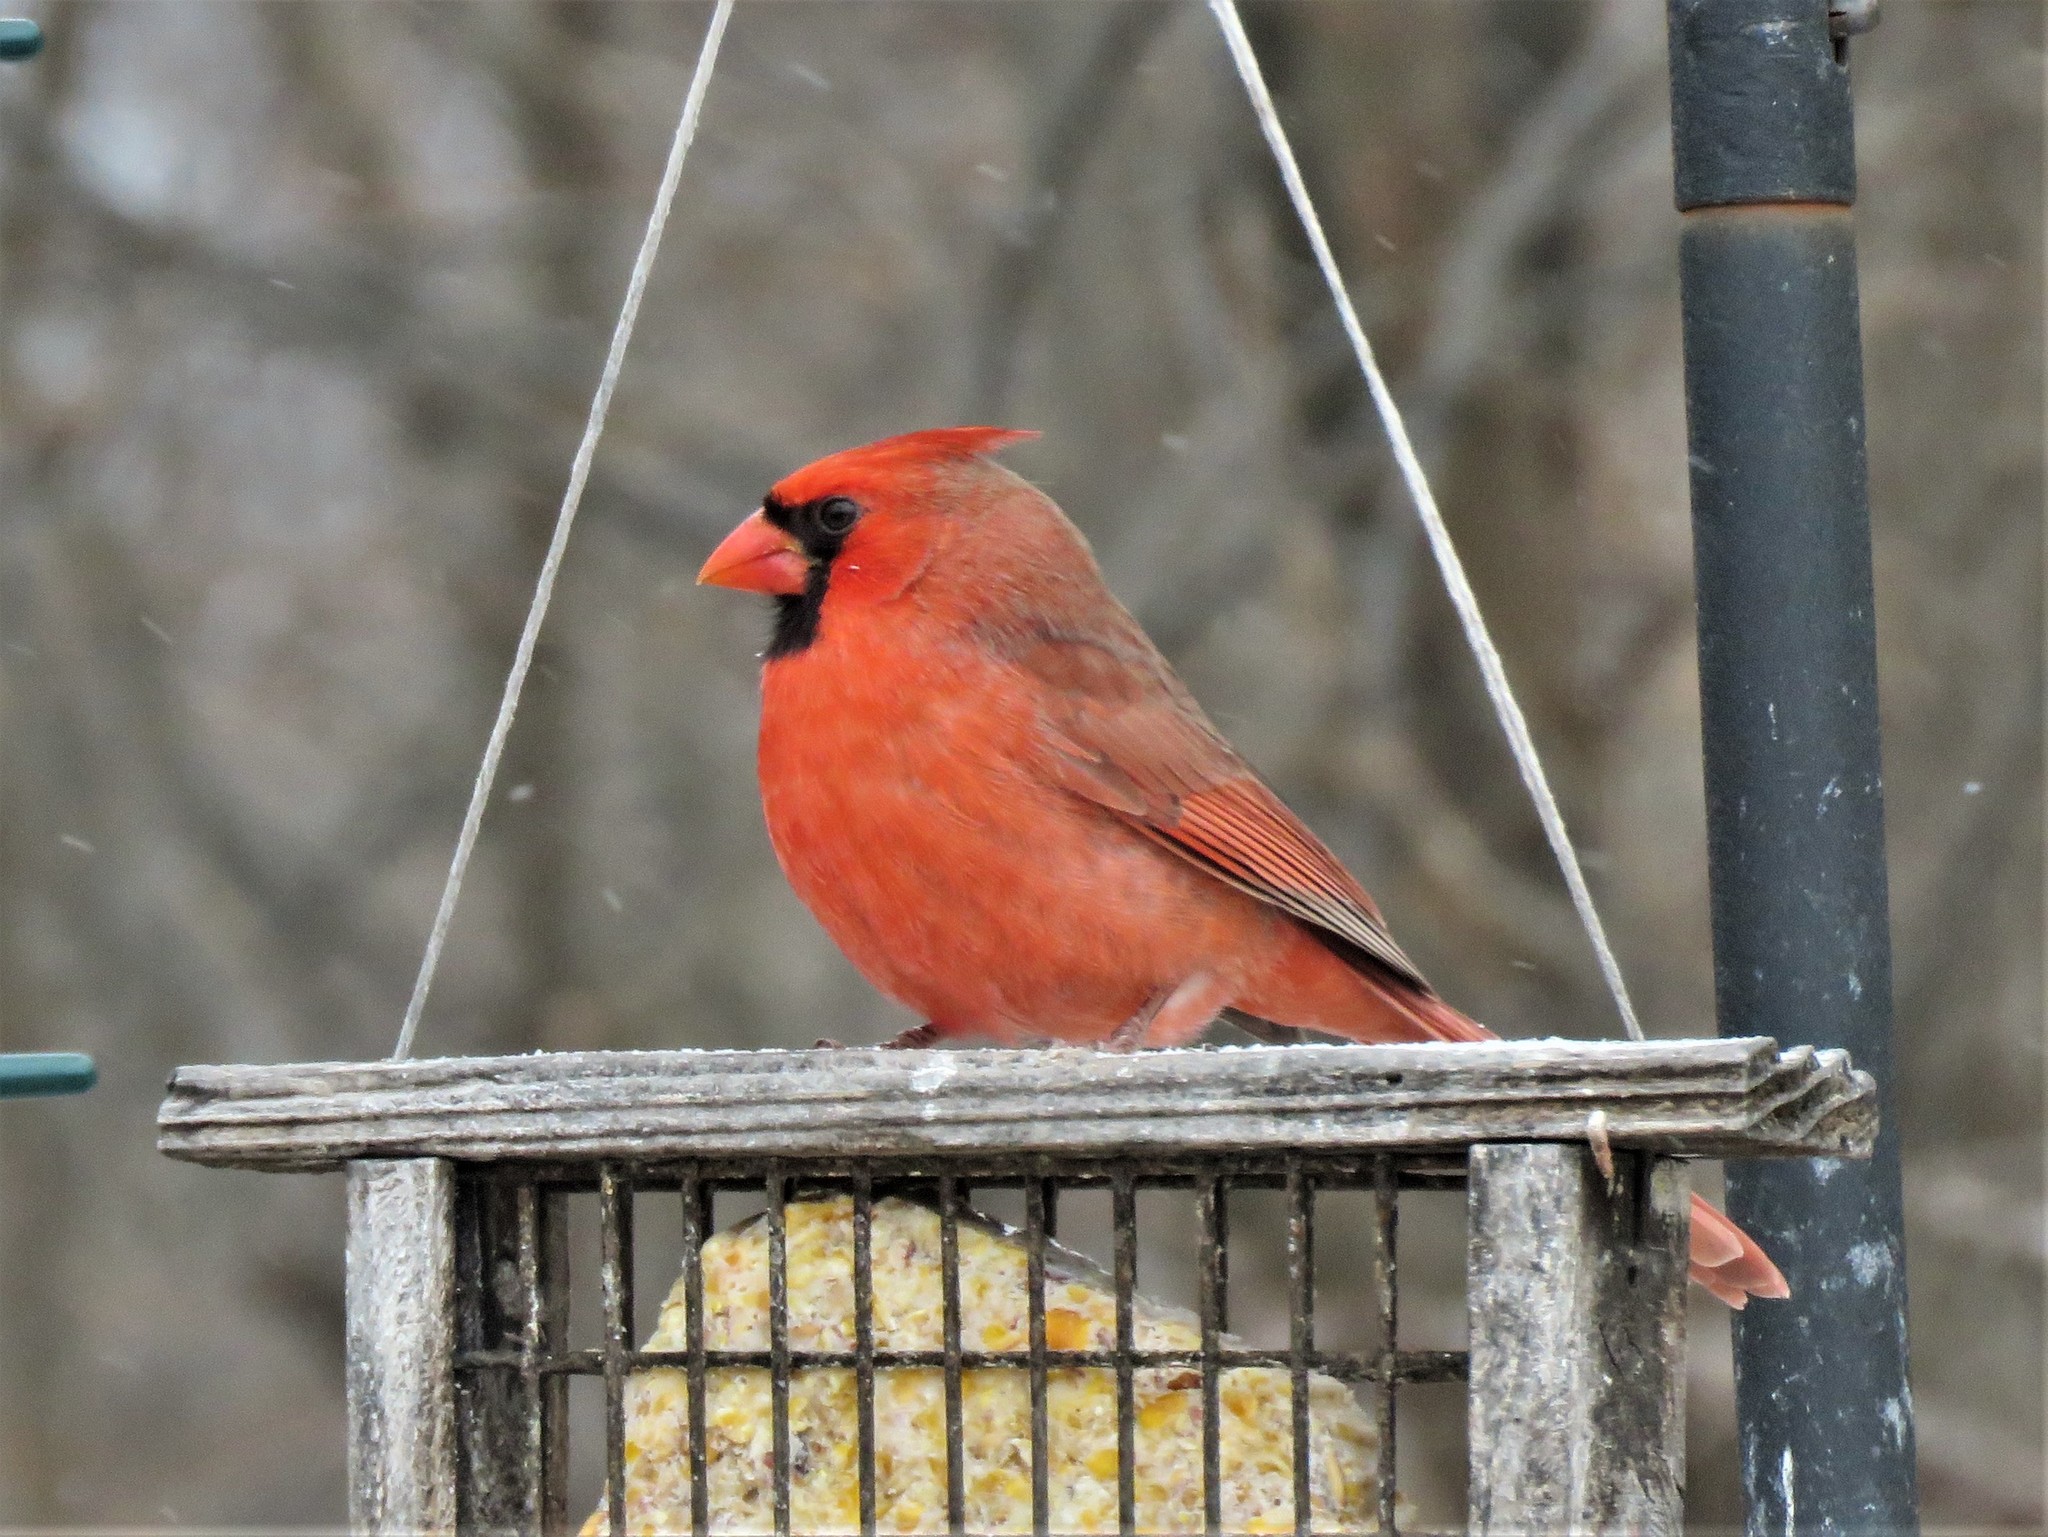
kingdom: Animalia
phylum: Chordata
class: Aves
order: Passeriformes
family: Cardinalidae
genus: Cardinalis
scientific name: Cardinalis cardinalis
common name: Northern cardinal
